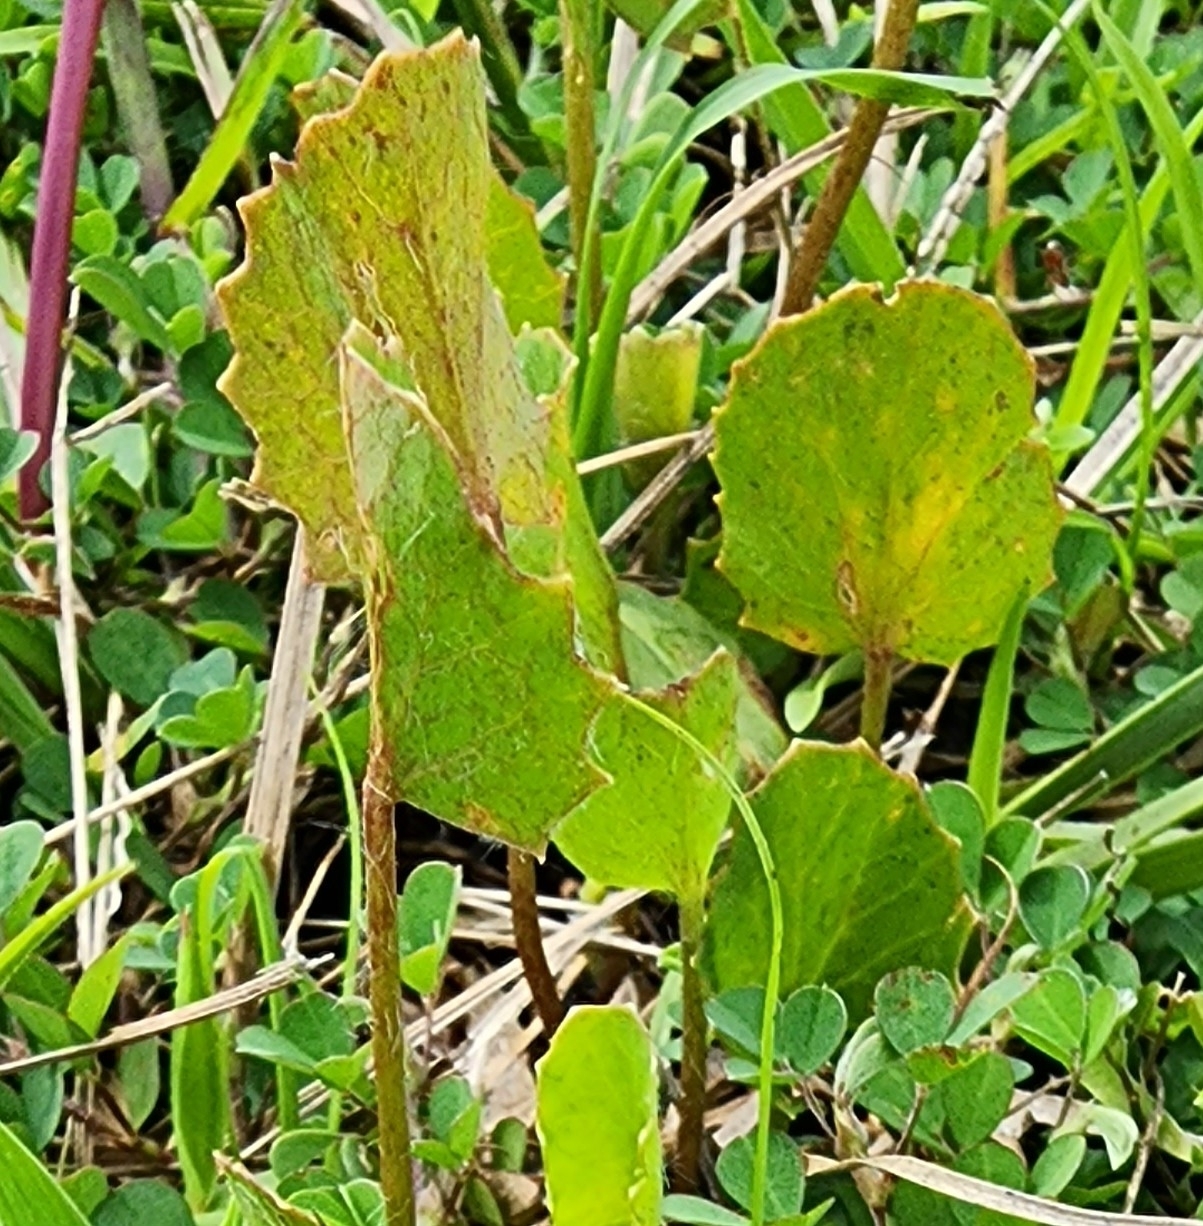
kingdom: Plantae
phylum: Tracheophyta
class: Magnoliopsida
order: Apiales
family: Apiaceae
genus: Centella
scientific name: Centella erecta
